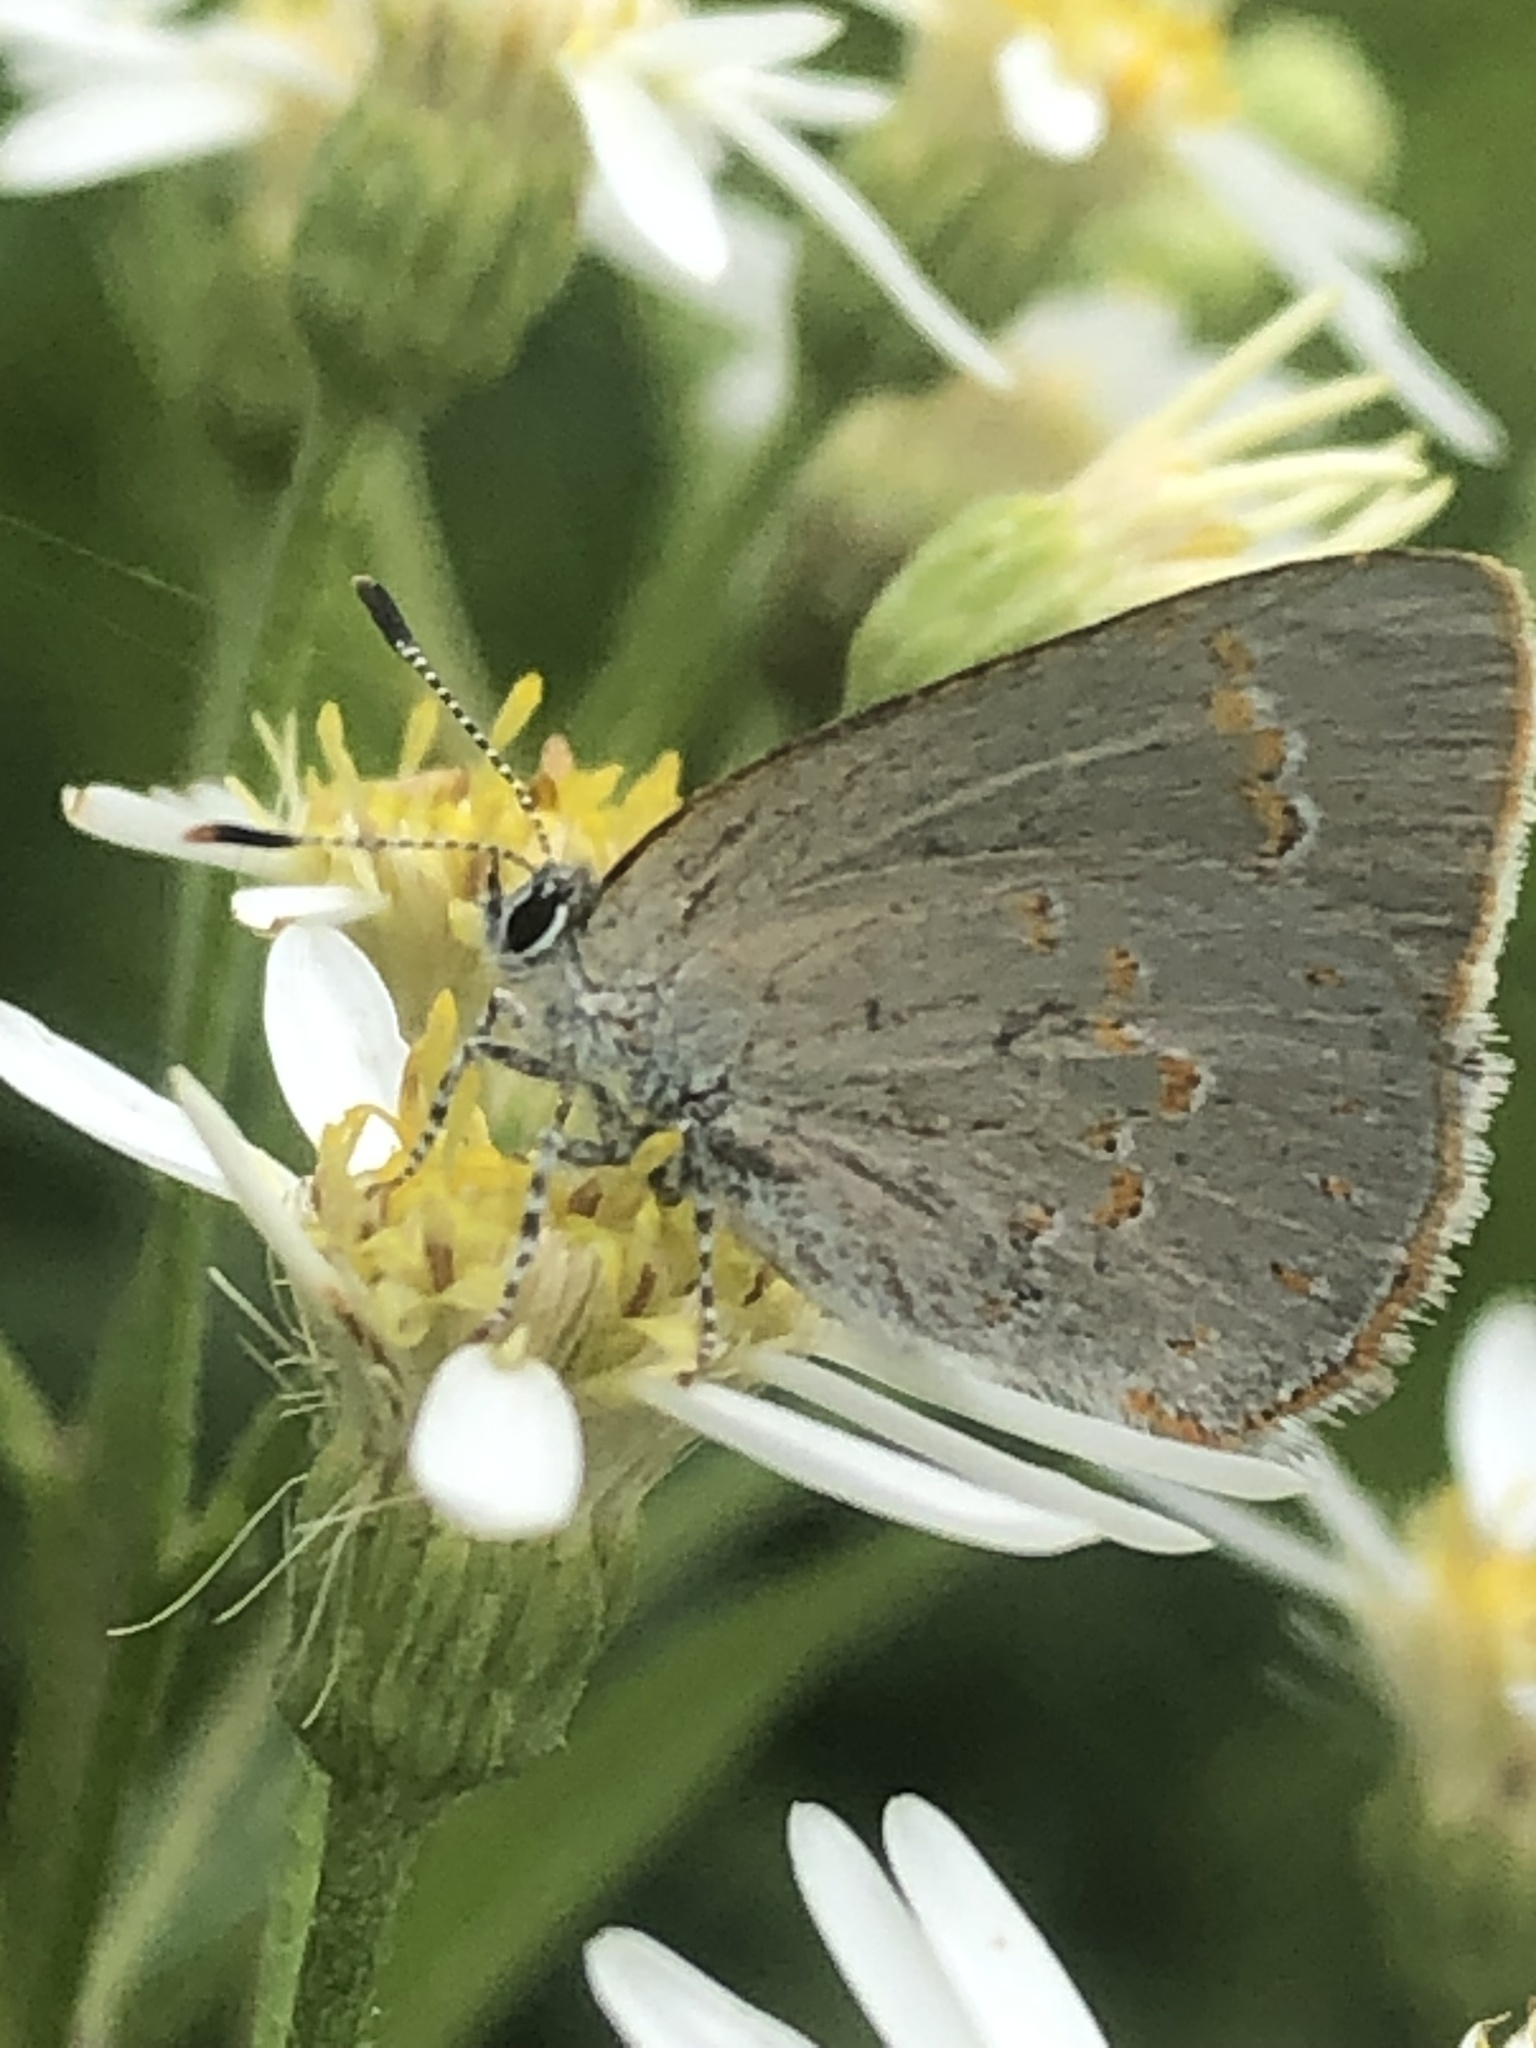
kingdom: Animalia
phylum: Arthropoda
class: Insecta
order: Lepidoptera
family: Lycaenidae
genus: Erora
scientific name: Erora laeta
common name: Early hairstreak
